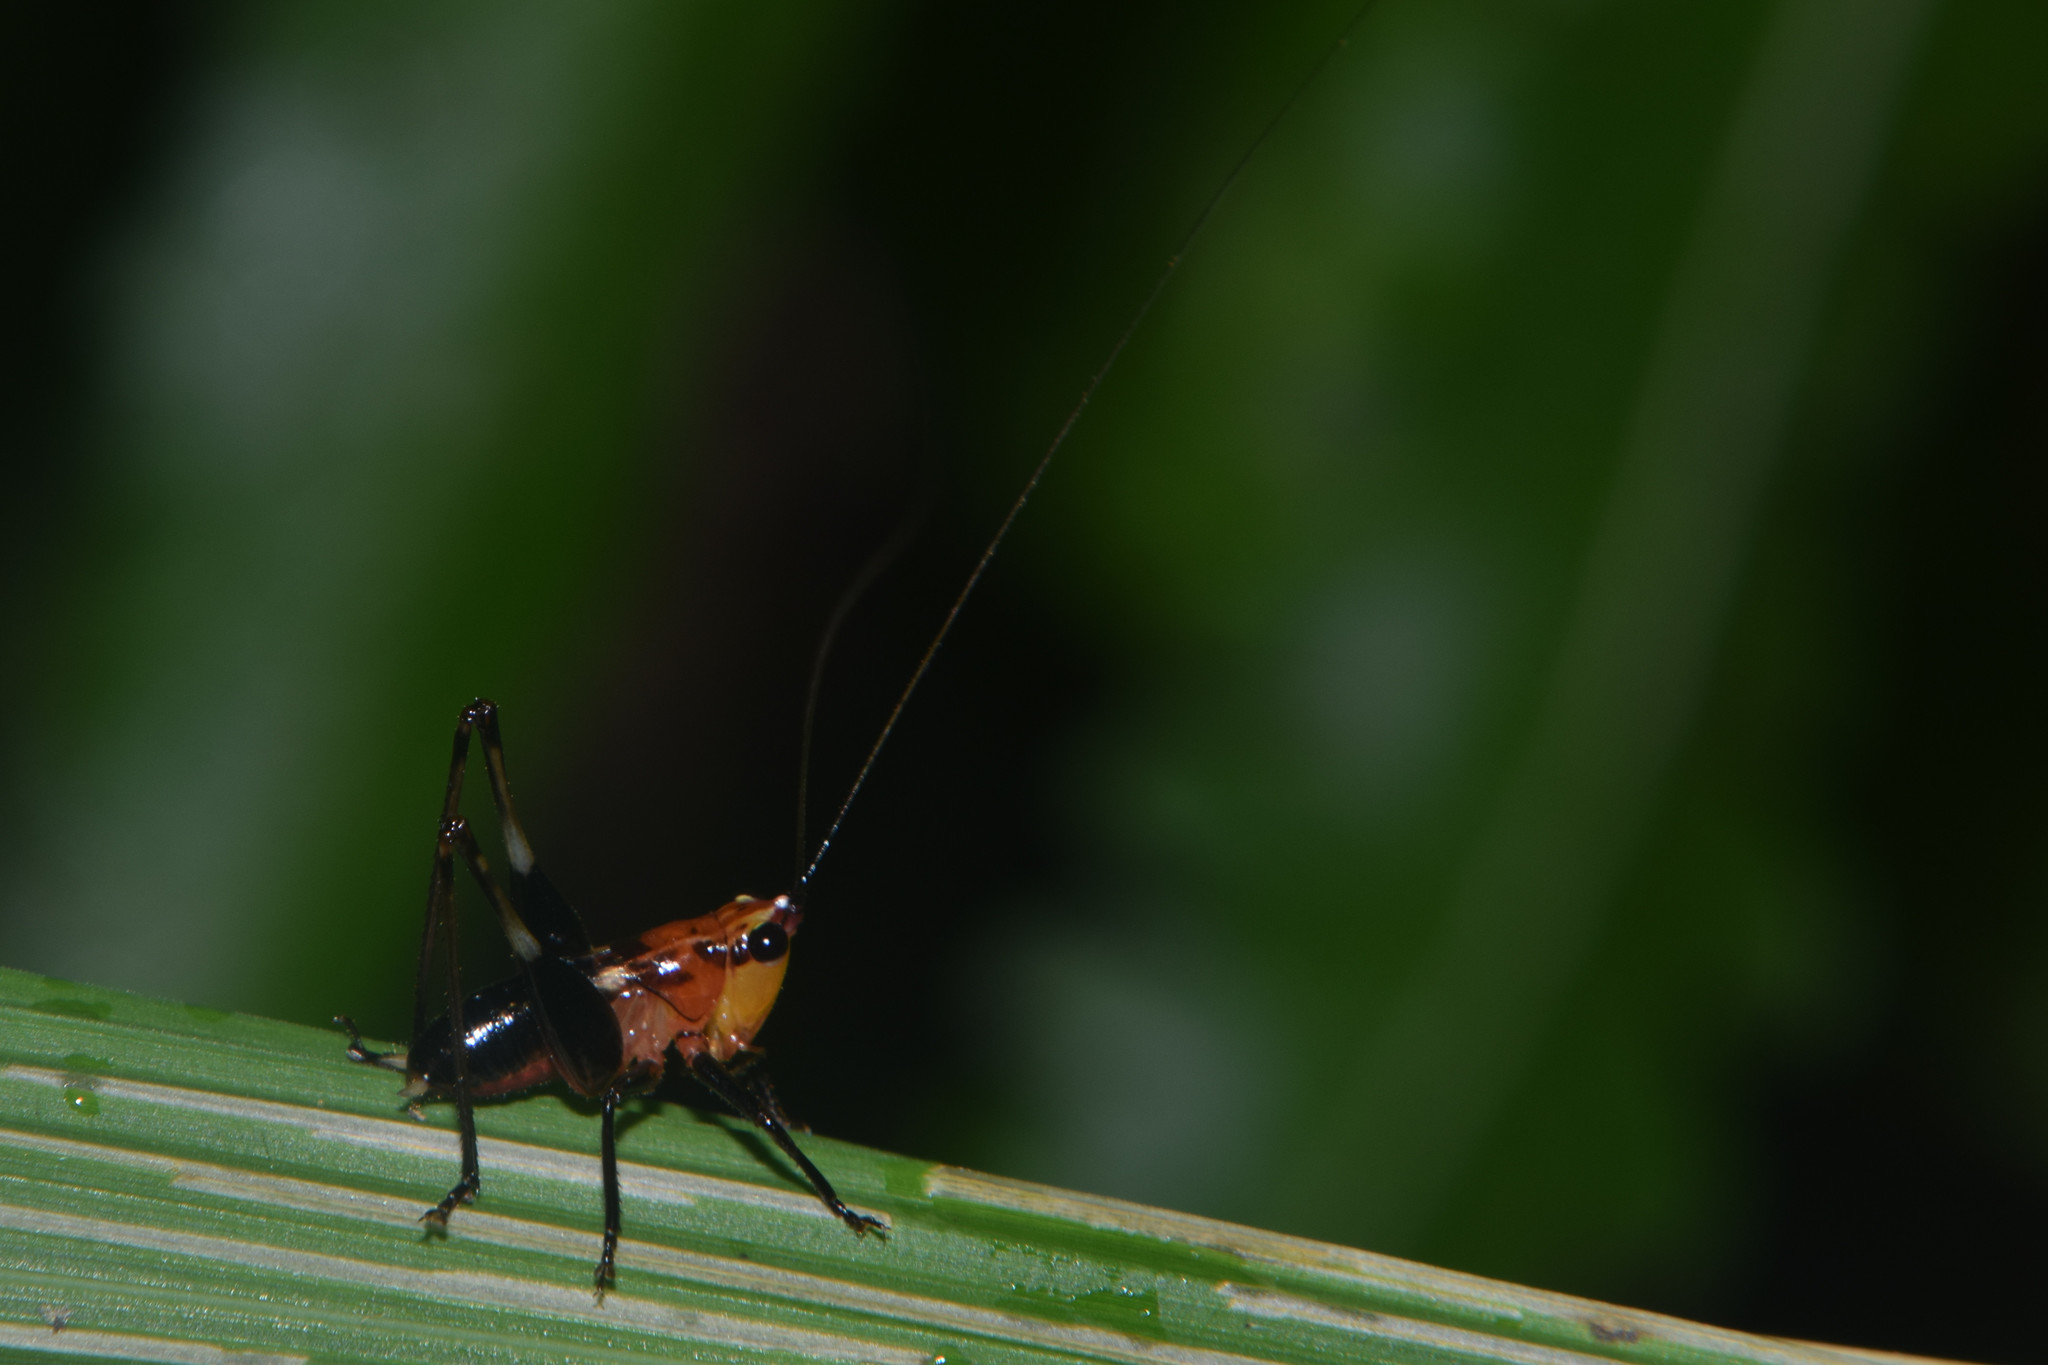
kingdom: Animalia
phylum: Arthropoda
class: Insecta
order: Orthoptera
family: Tettigoniidae
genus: Conocephalus
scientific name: Conocephalus melaenus
